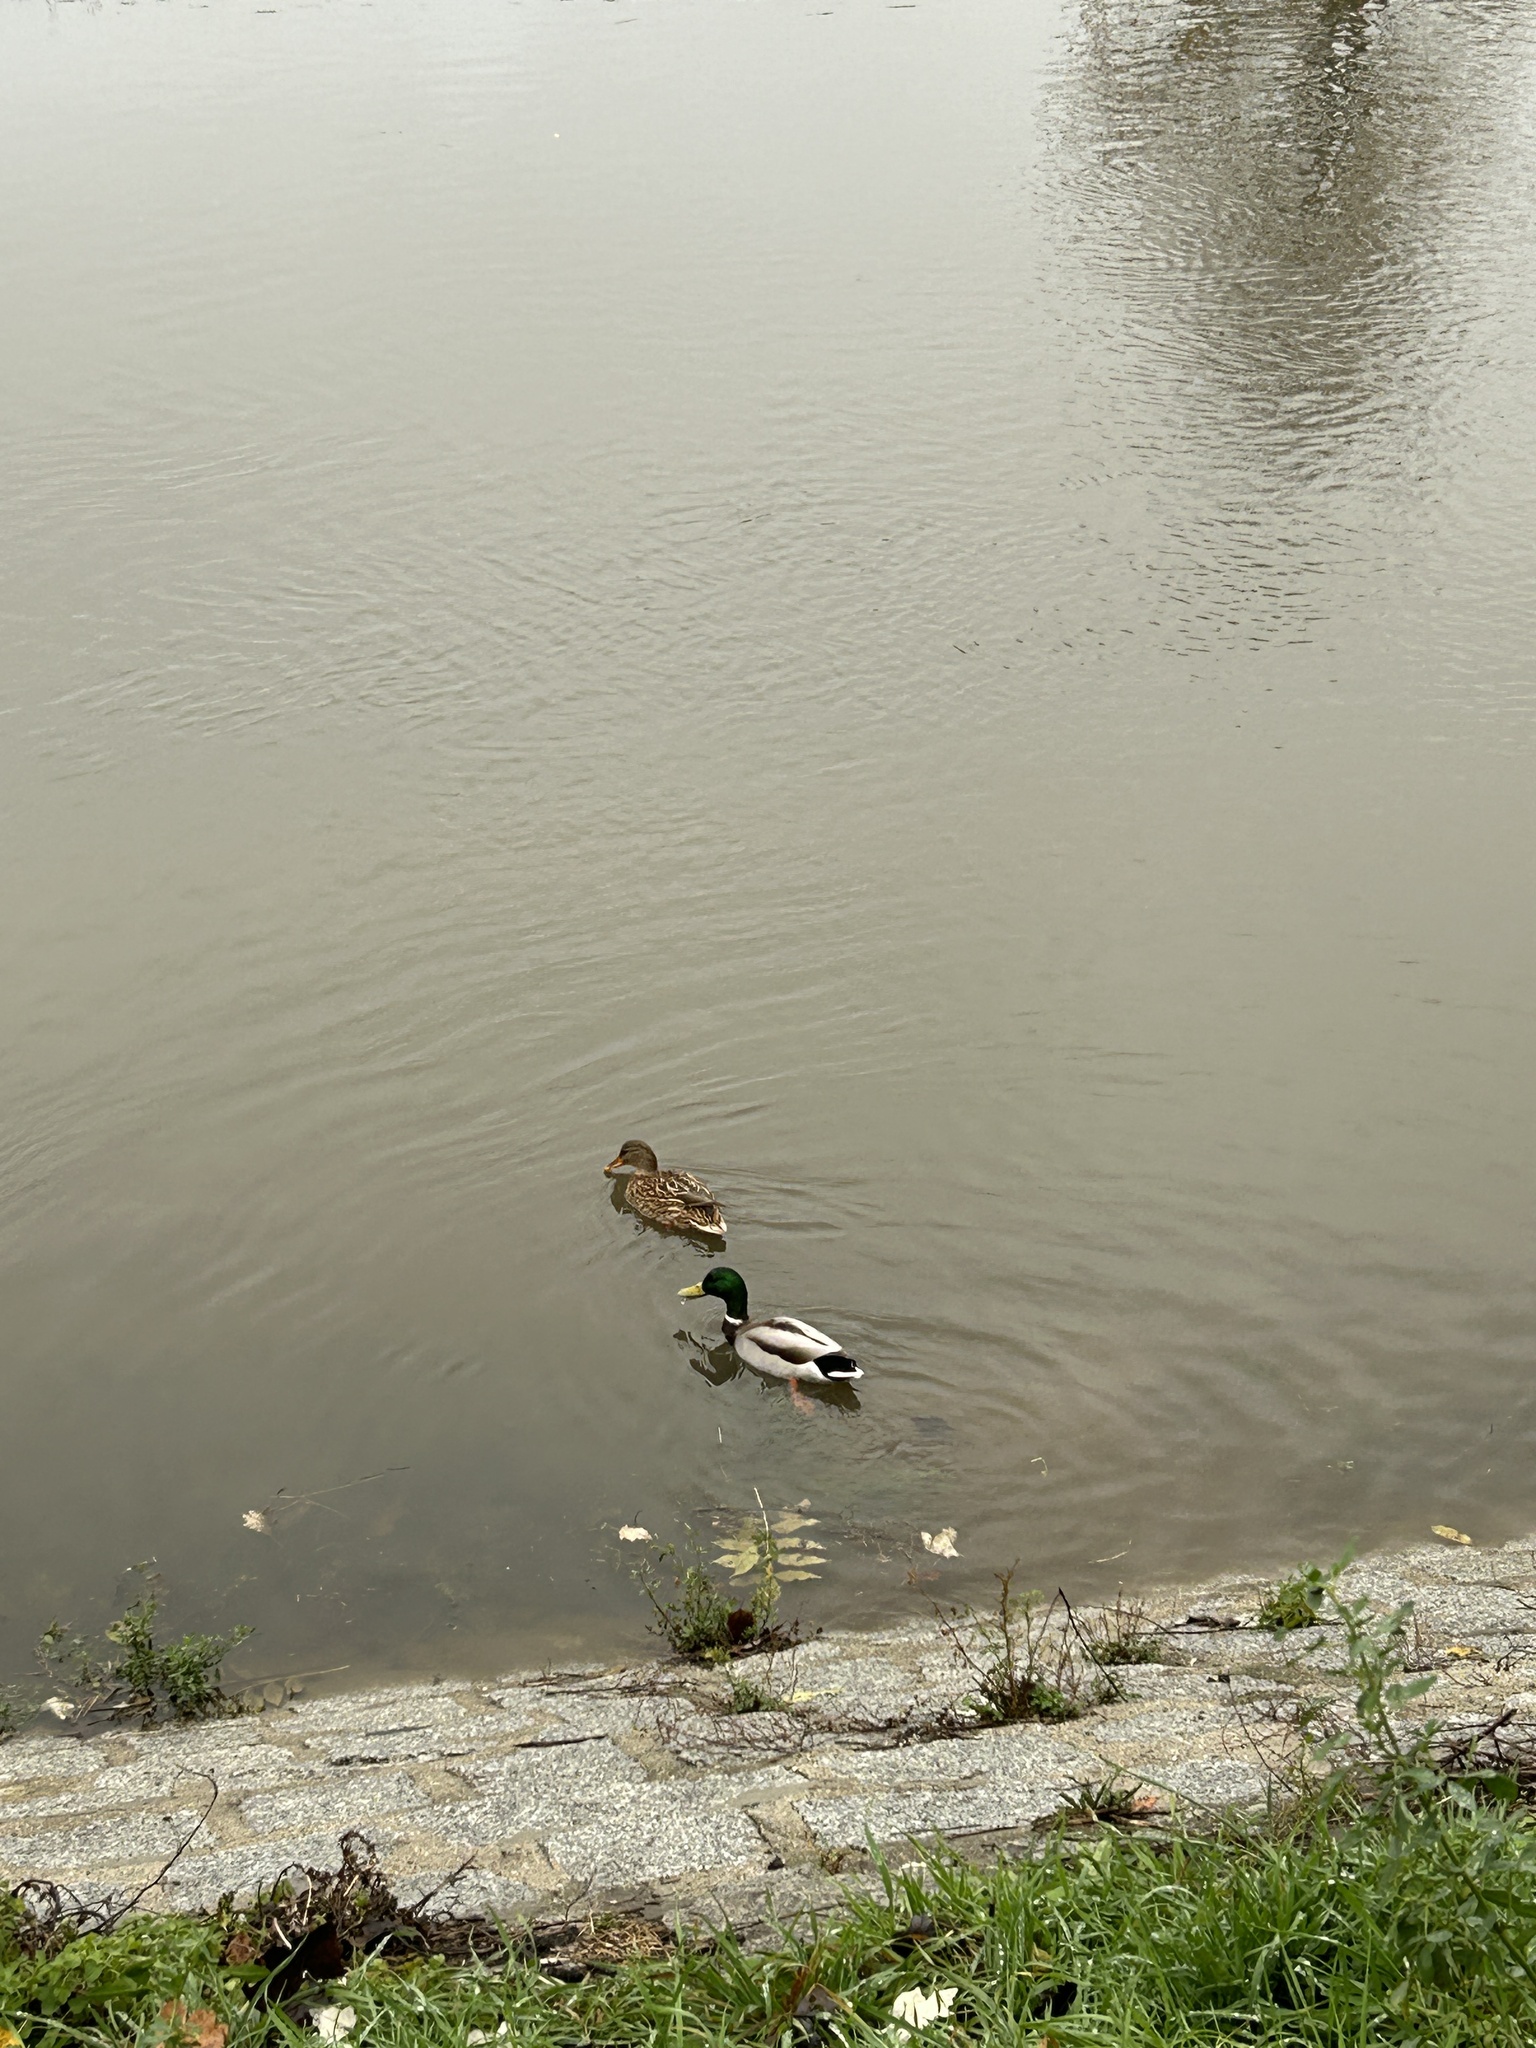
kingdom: Animalia
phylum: Chordata
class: Aves
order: Anseriformes
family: Anatidae
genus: Anas
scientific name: Anas platyrhynchos
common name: Mallard
